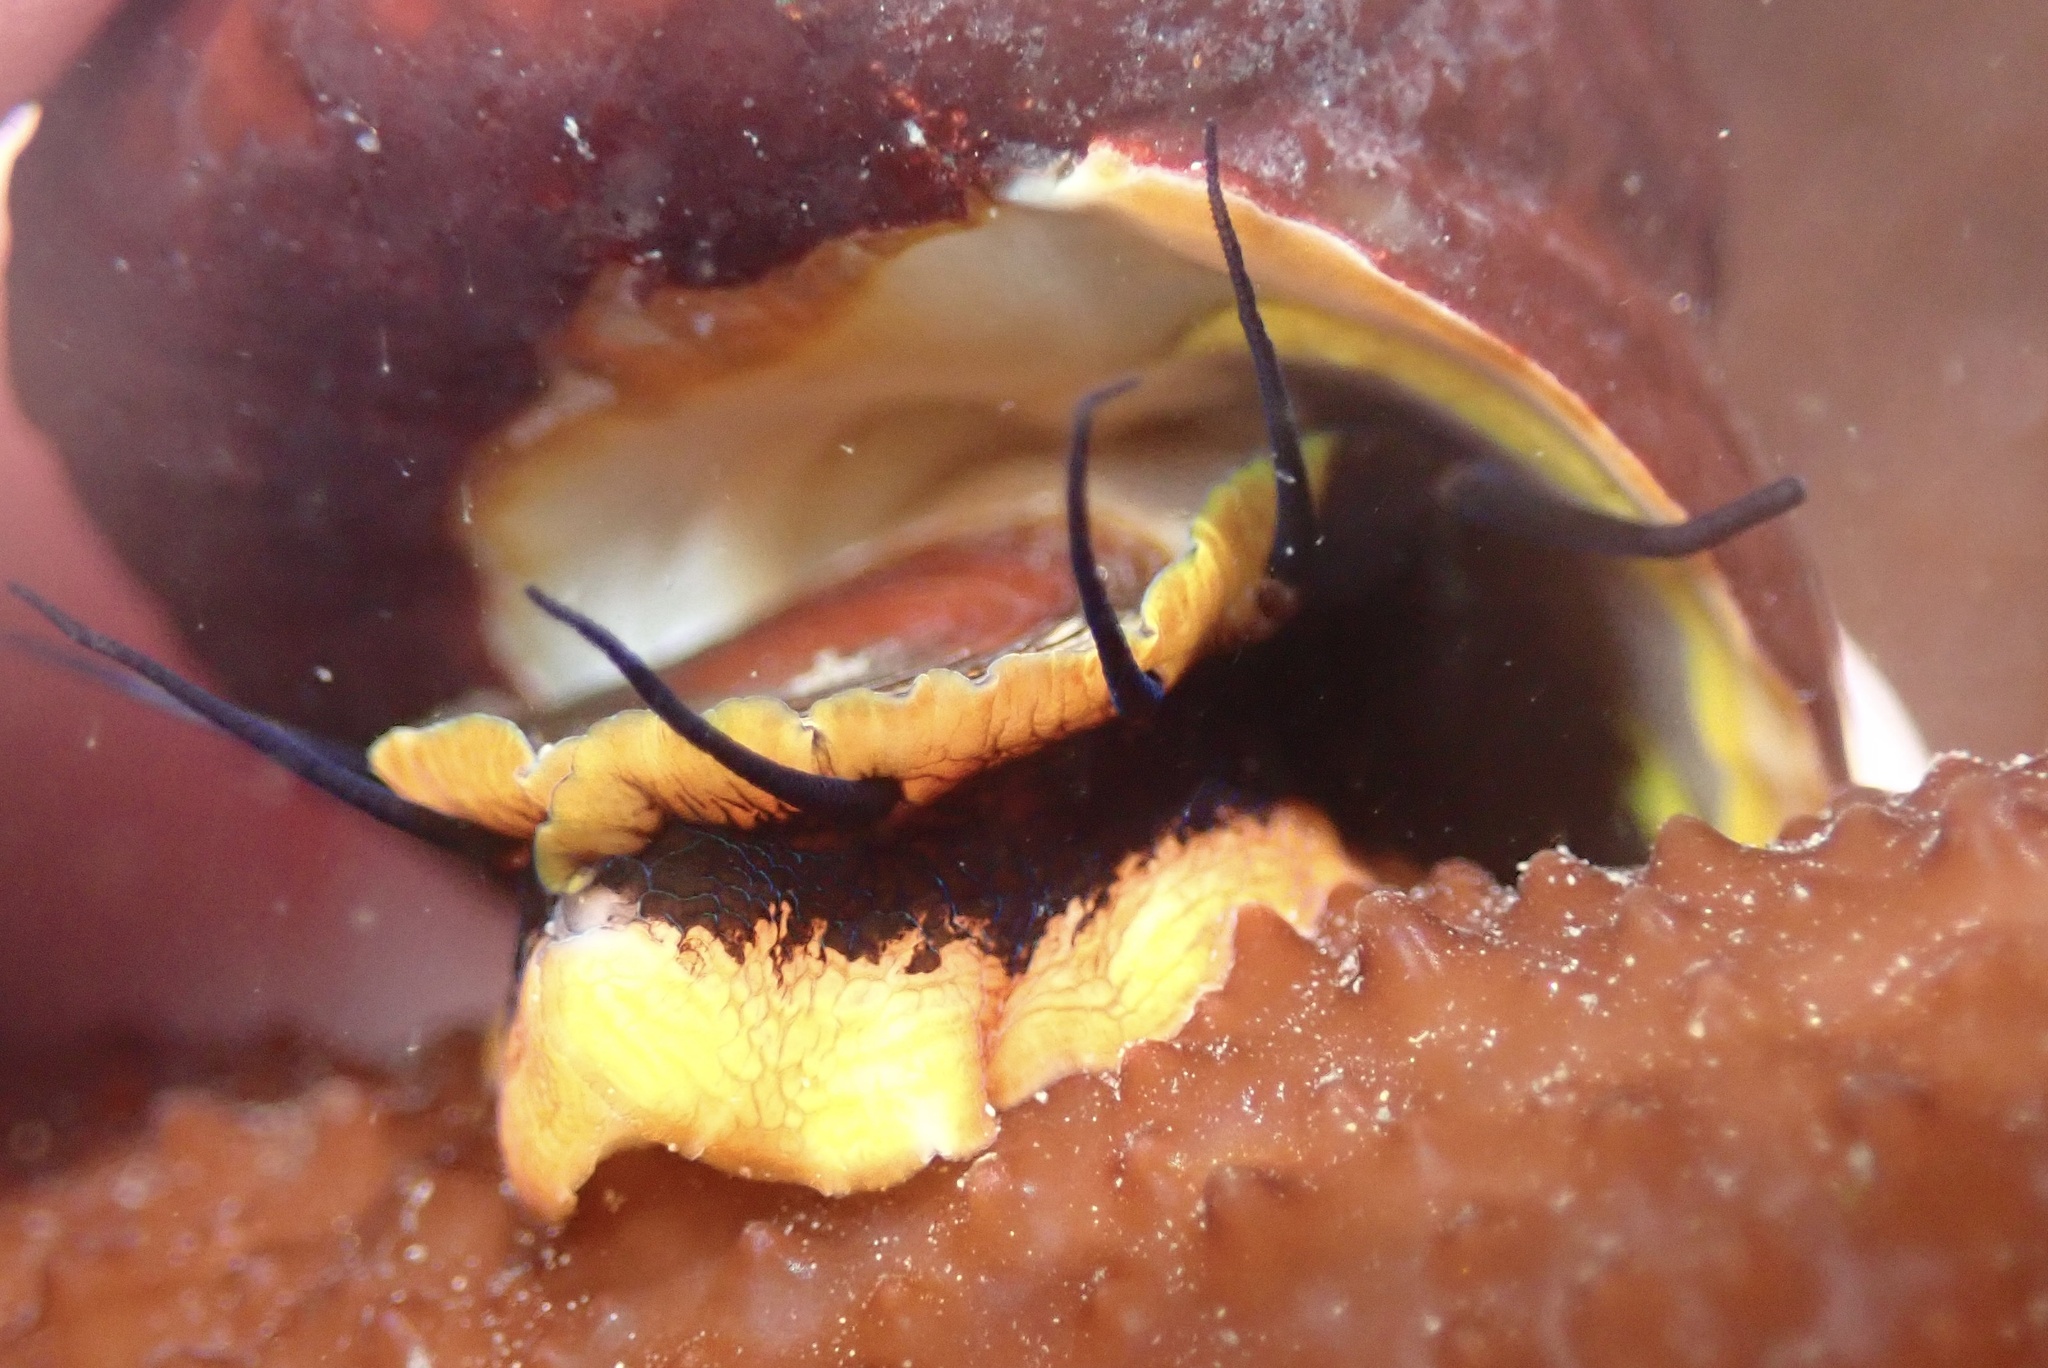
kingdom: Animalia
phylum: Mollusca
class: Gastropoda
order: Trochida
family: Tegulidae
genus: Tegula
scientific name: Tegula brunnea
